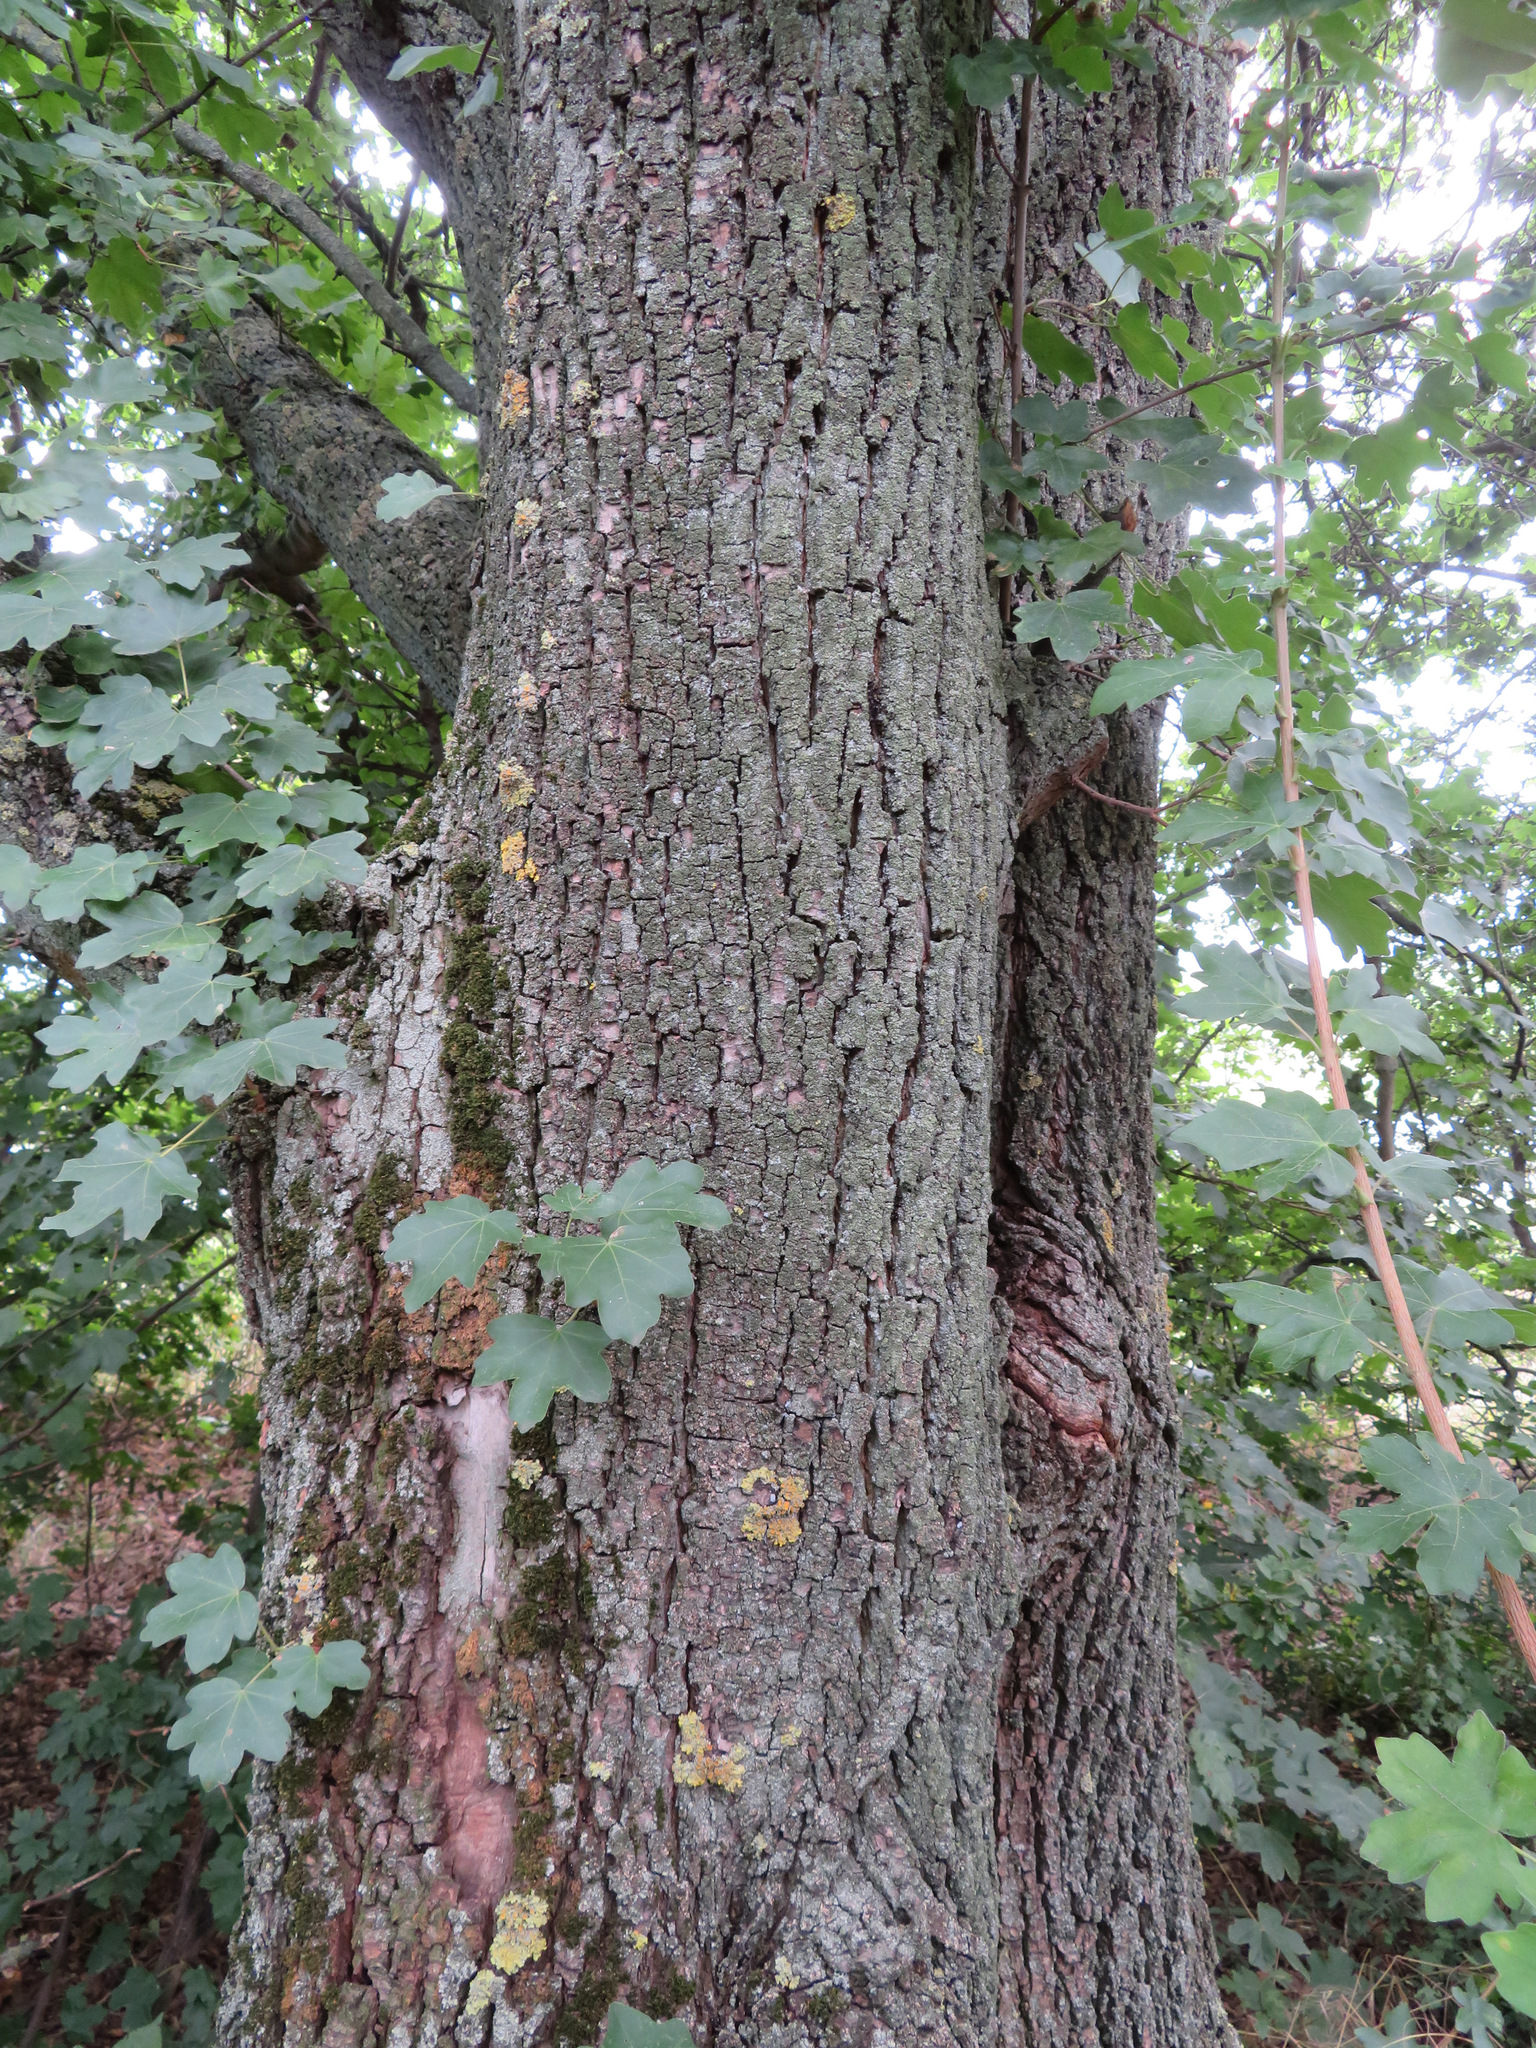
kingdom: Plantae
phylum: Tracheophyta
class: Magnoliopsida
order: Sapindales
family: Sapindaceae
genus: Acer
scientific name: Acer campestre
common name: Field maple
